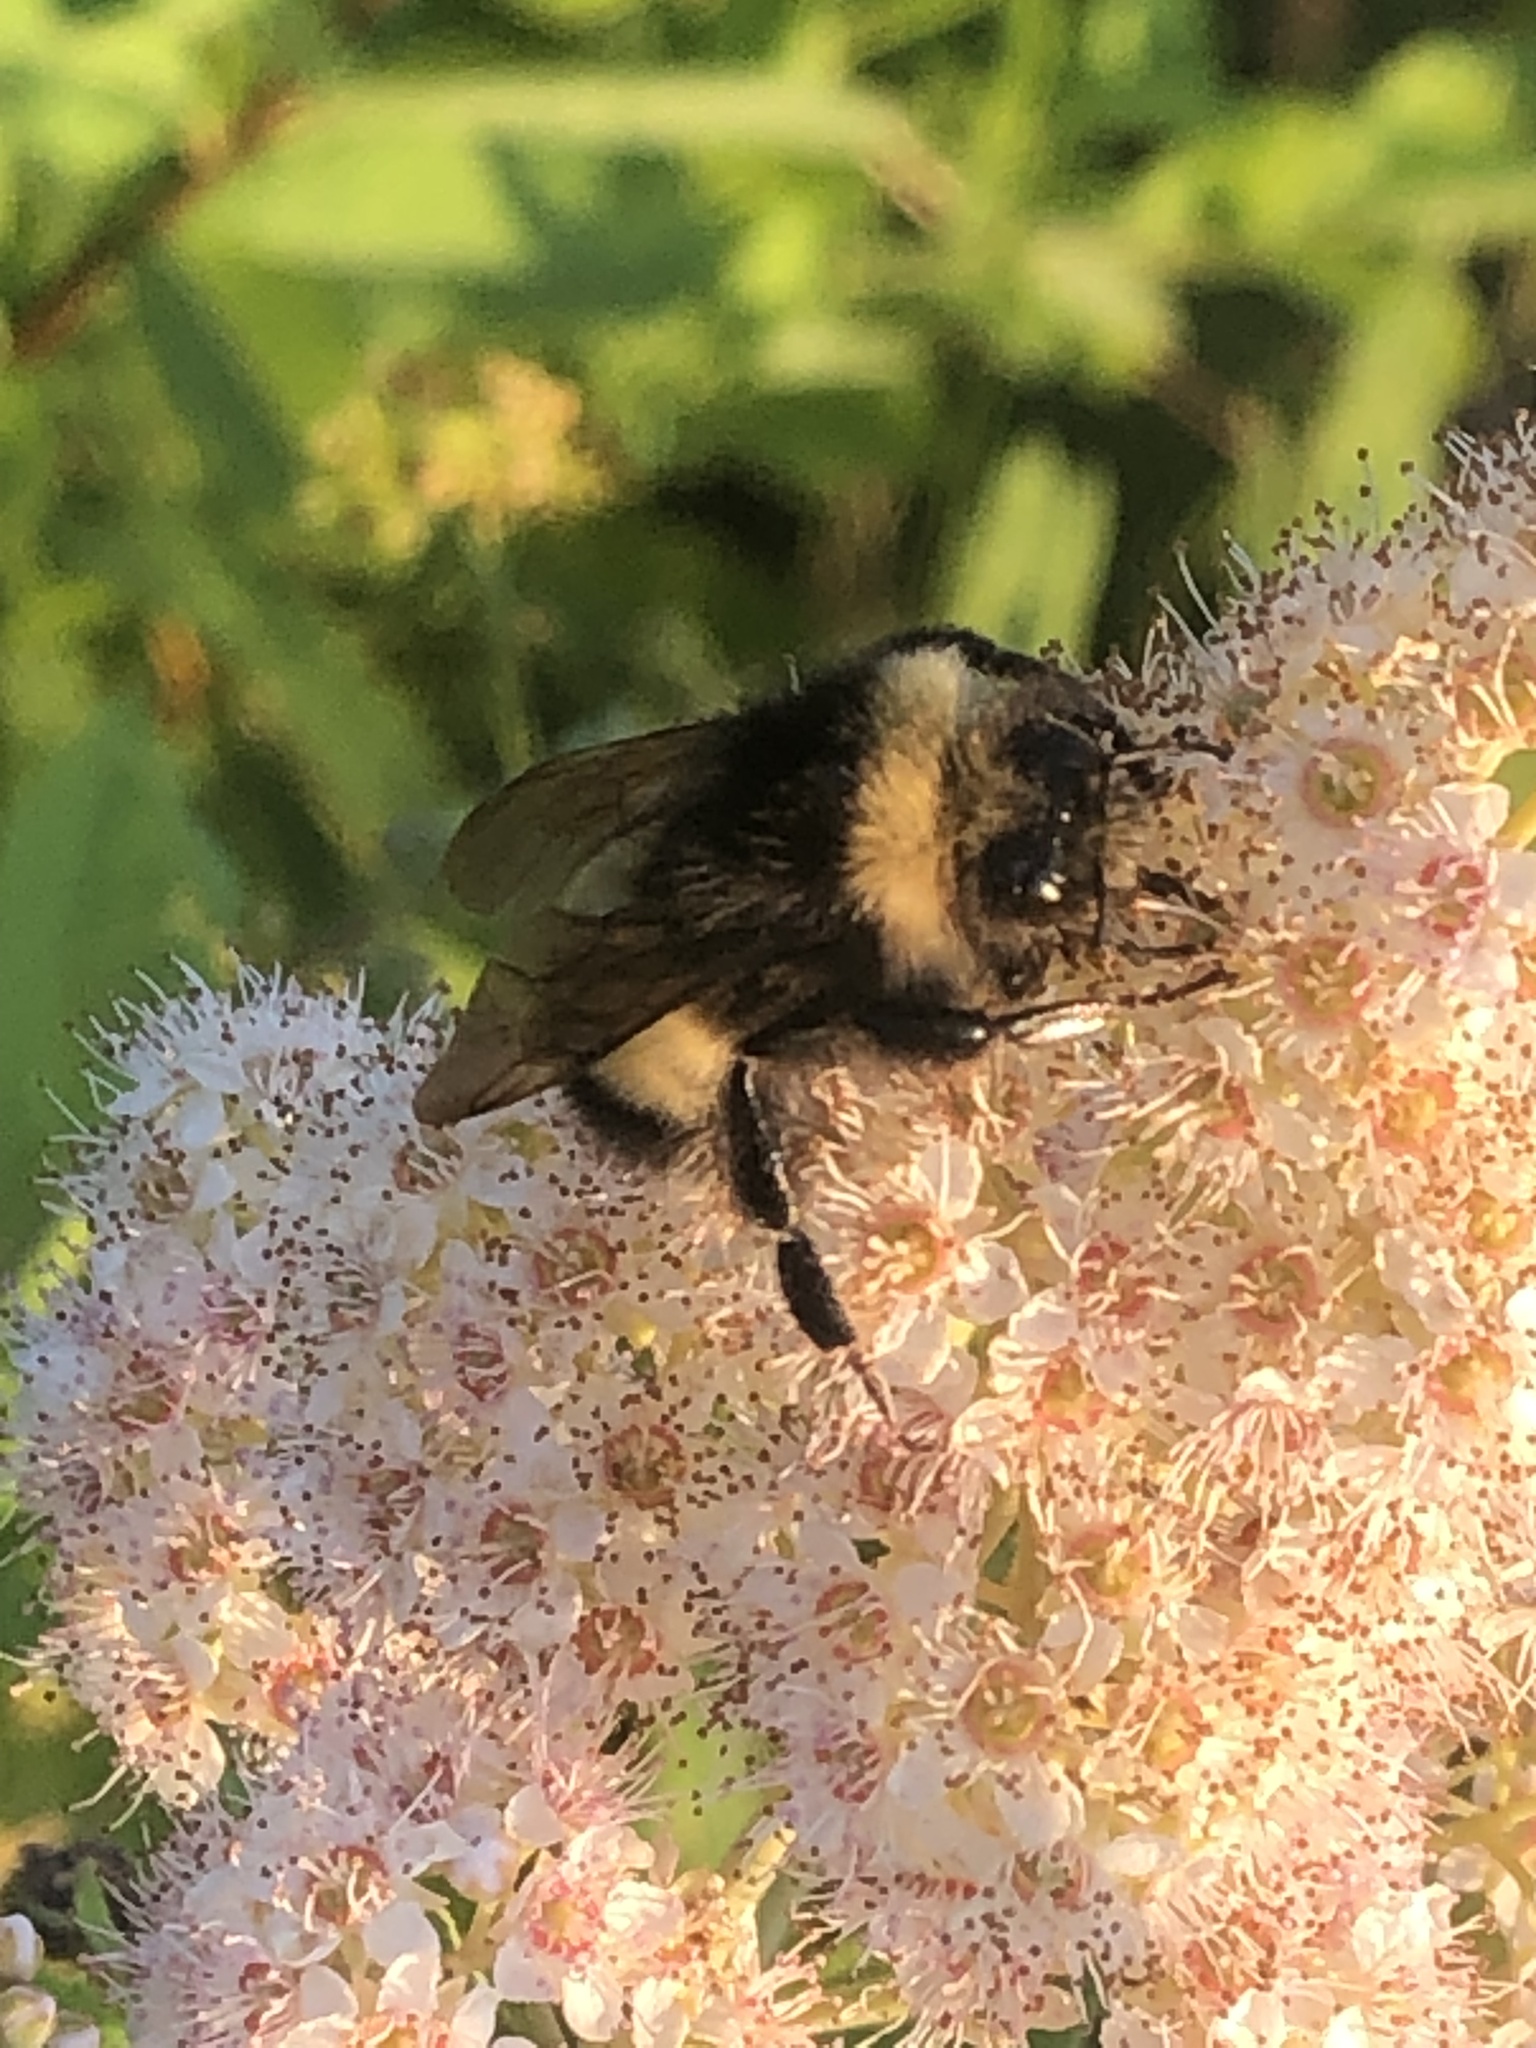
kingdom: Animalia
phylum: Arthropoda
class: Insecta
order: Hymenoptera
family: Apidae
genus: Bombus
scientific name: Bombus terricola
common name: Yellow-banded bumble bee
